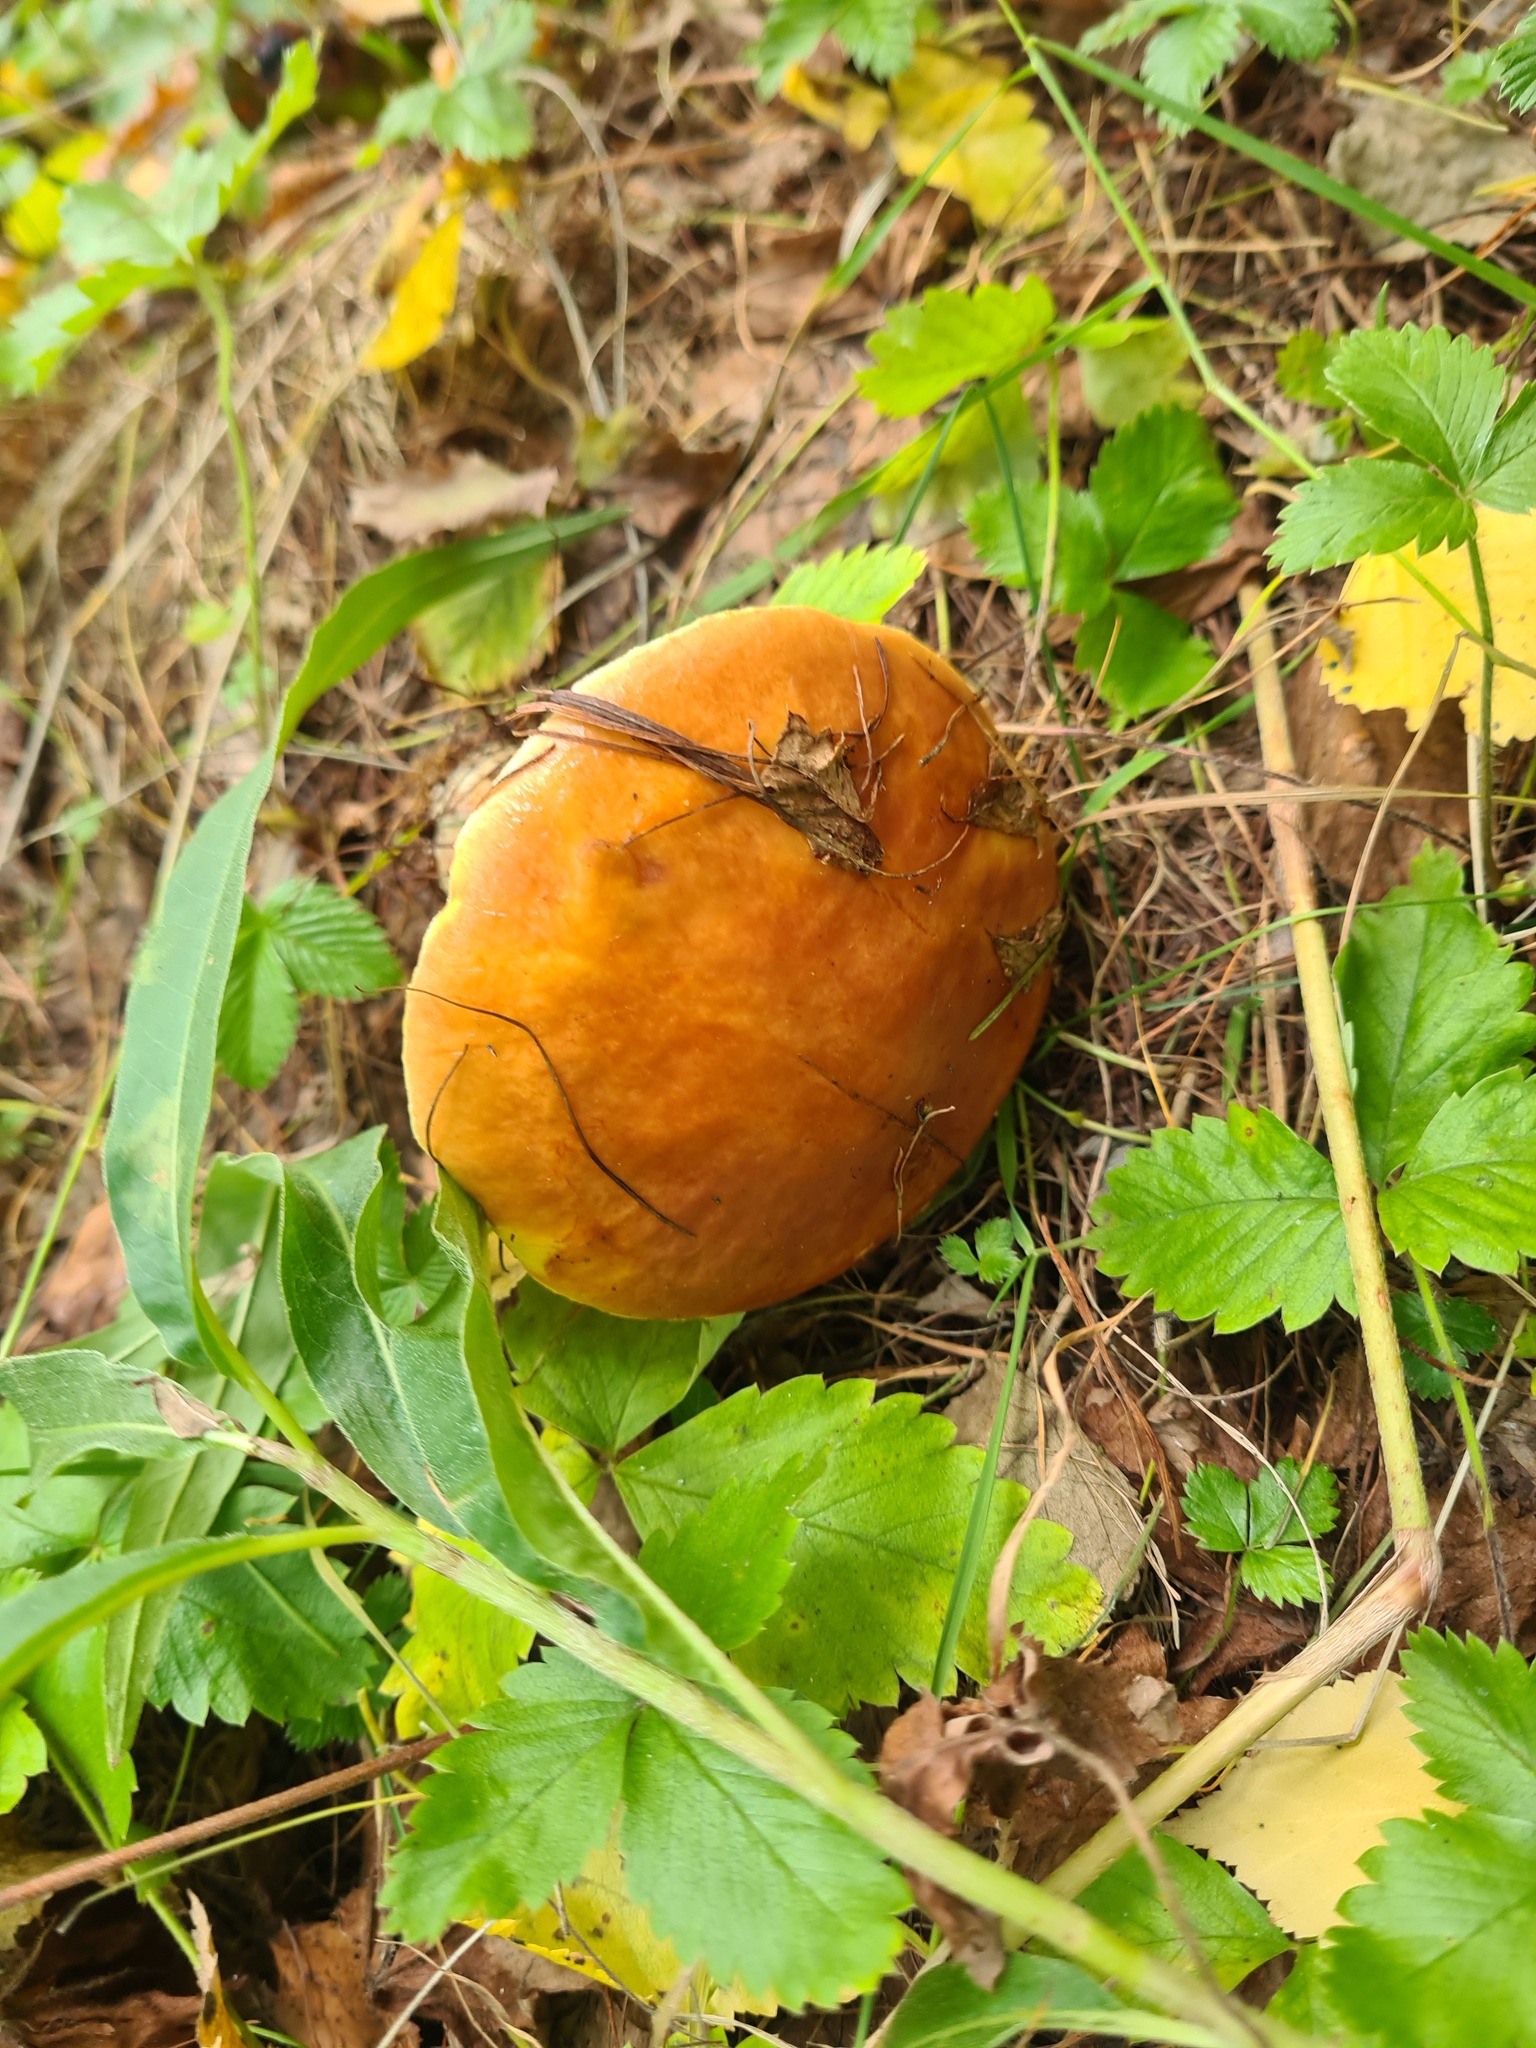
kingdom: Fungi
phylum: Basidiomycota
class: Agaricomycetes
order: Boletales
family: Suillaceae
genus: Suillus
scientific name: Suillus grevillei
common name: Larch bolete
